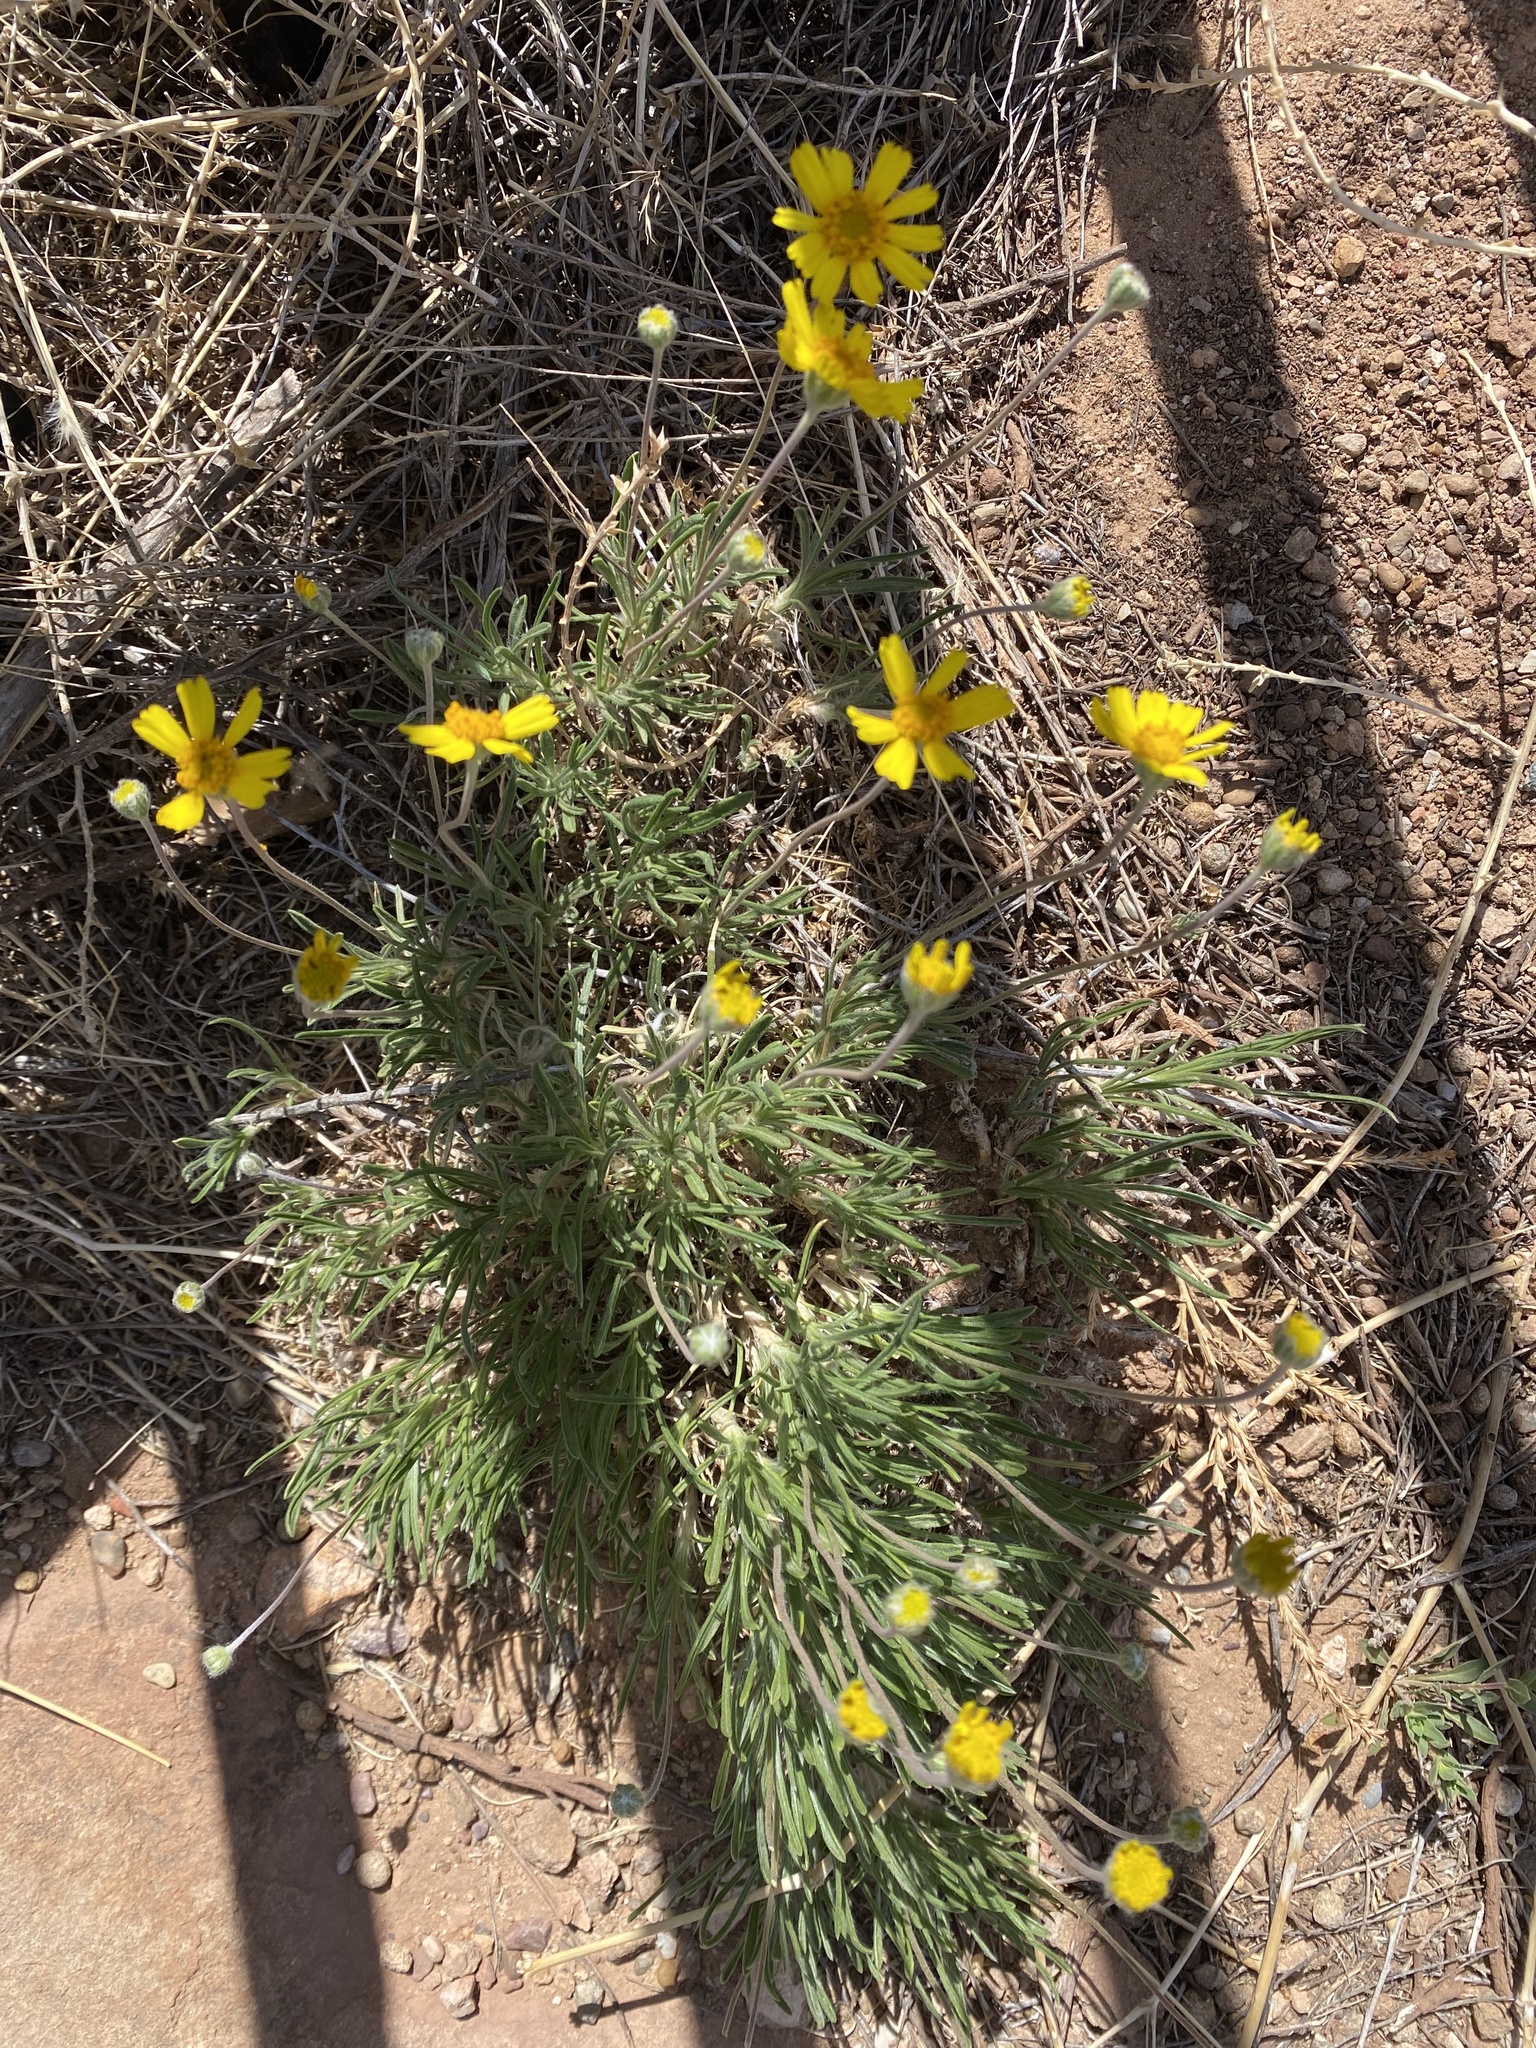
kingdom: Plantae
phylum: Tracheophyta
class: Magnoliopsida
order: Asterales
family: Asteraceae
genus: Tetraneuris
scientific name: Tetraneuris scaposa
